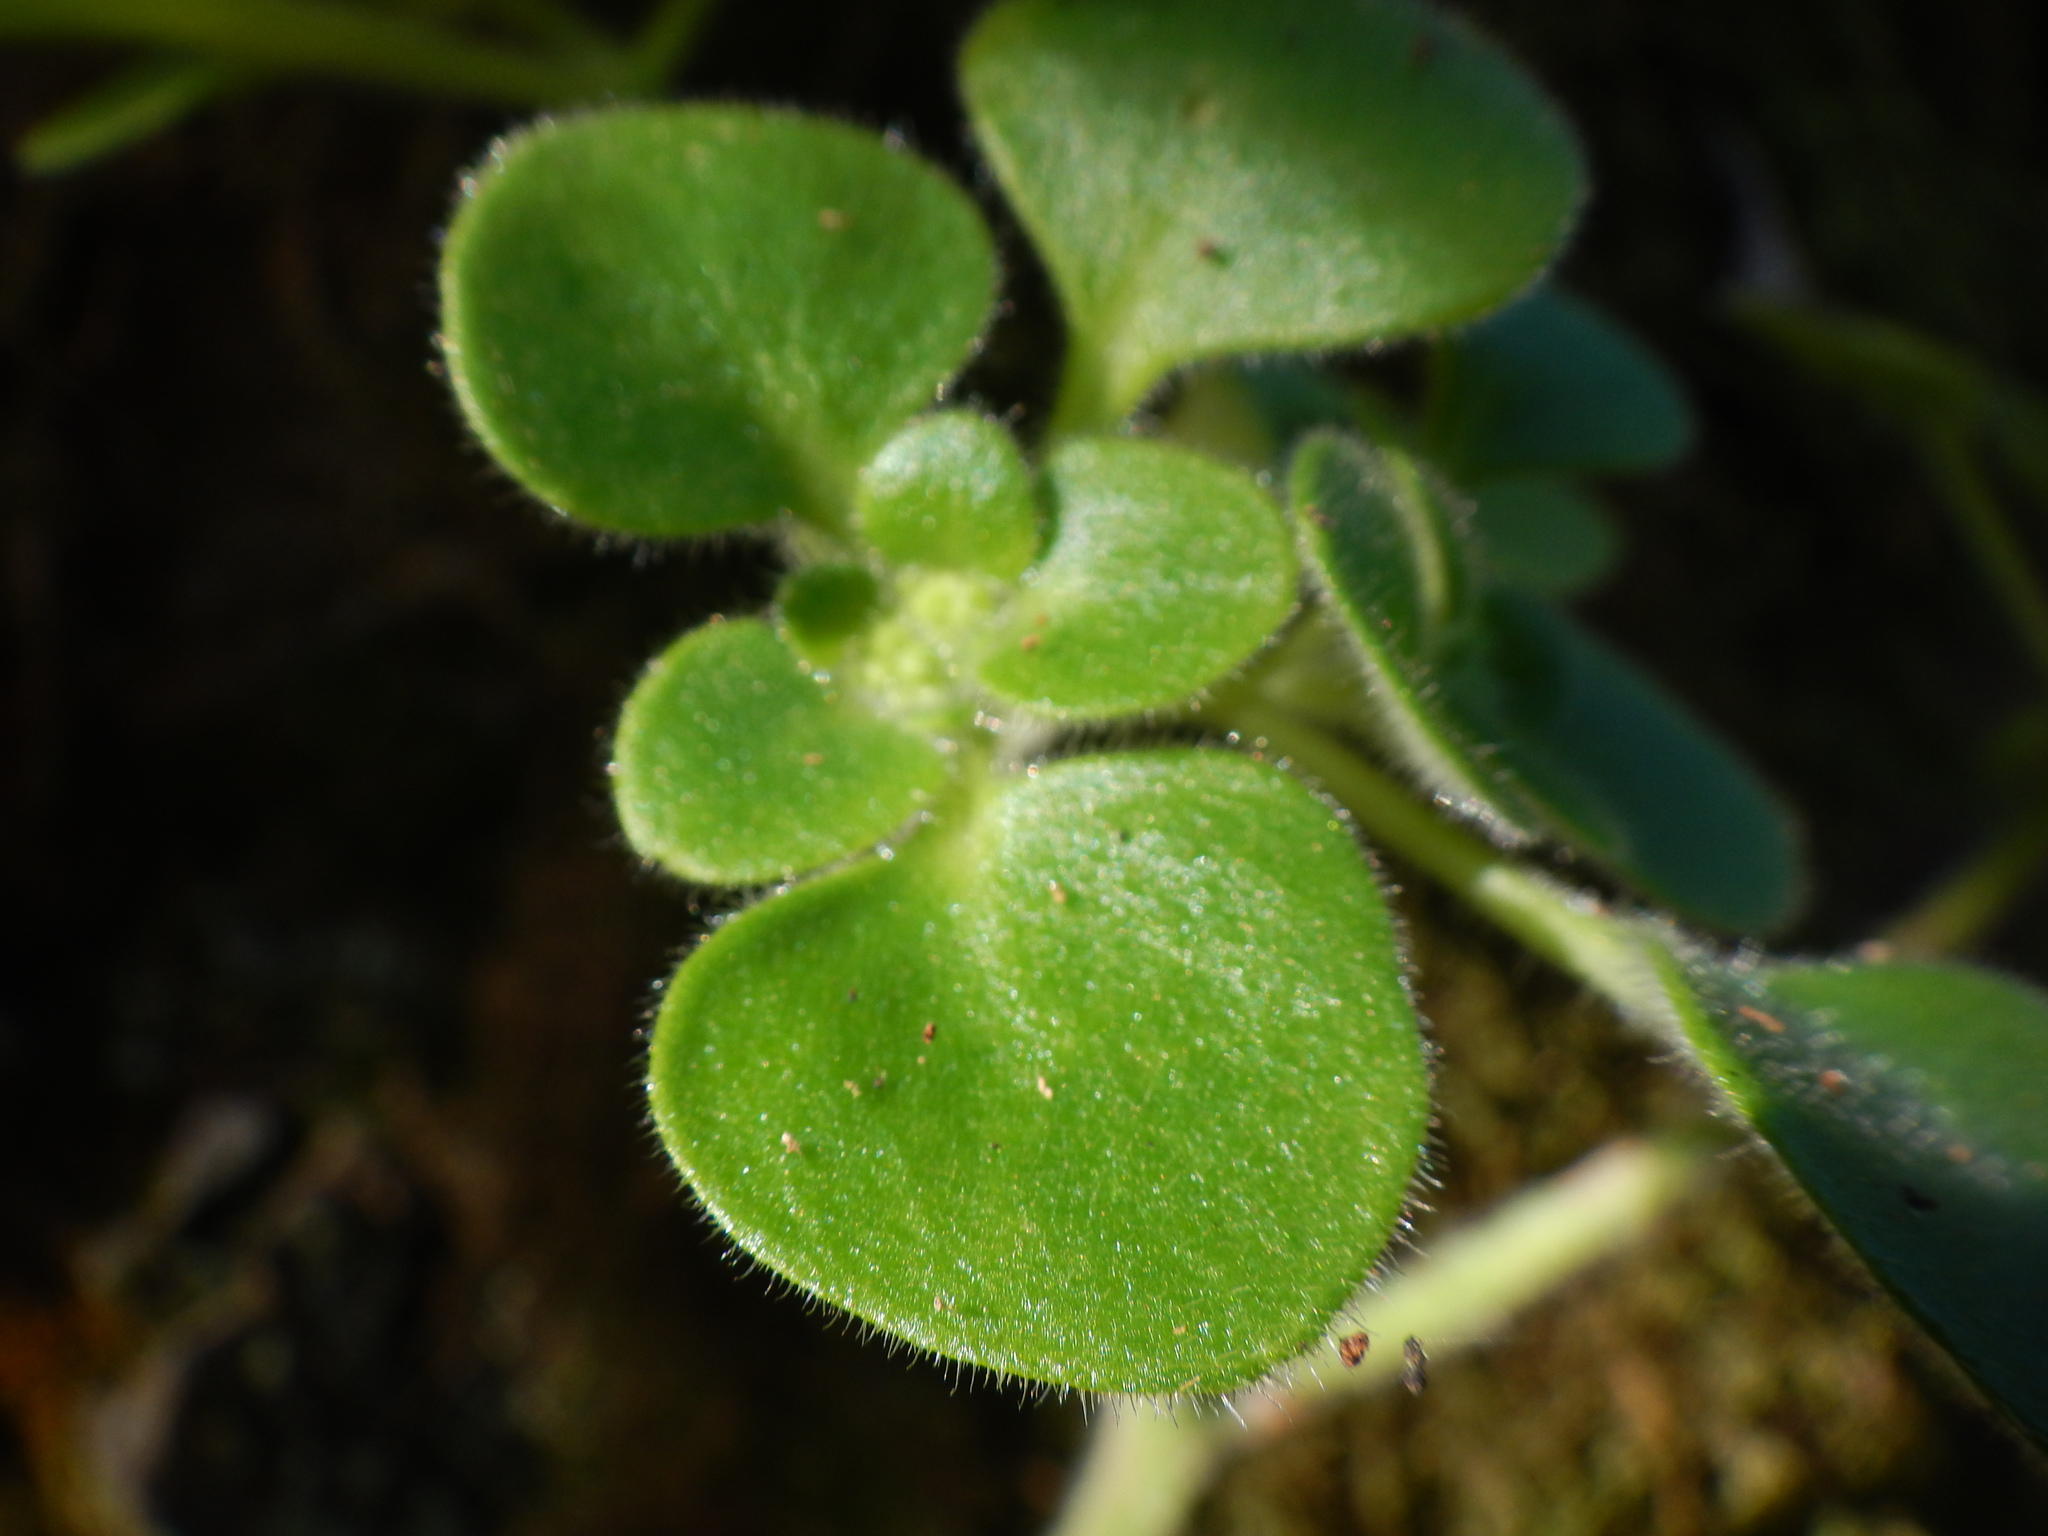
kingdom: Plantae
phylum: Tracheophyta
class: Magnoliopsida
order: Saxifragales
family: Crassulaceae
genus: Aichryson
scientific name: Aichryson laxum
